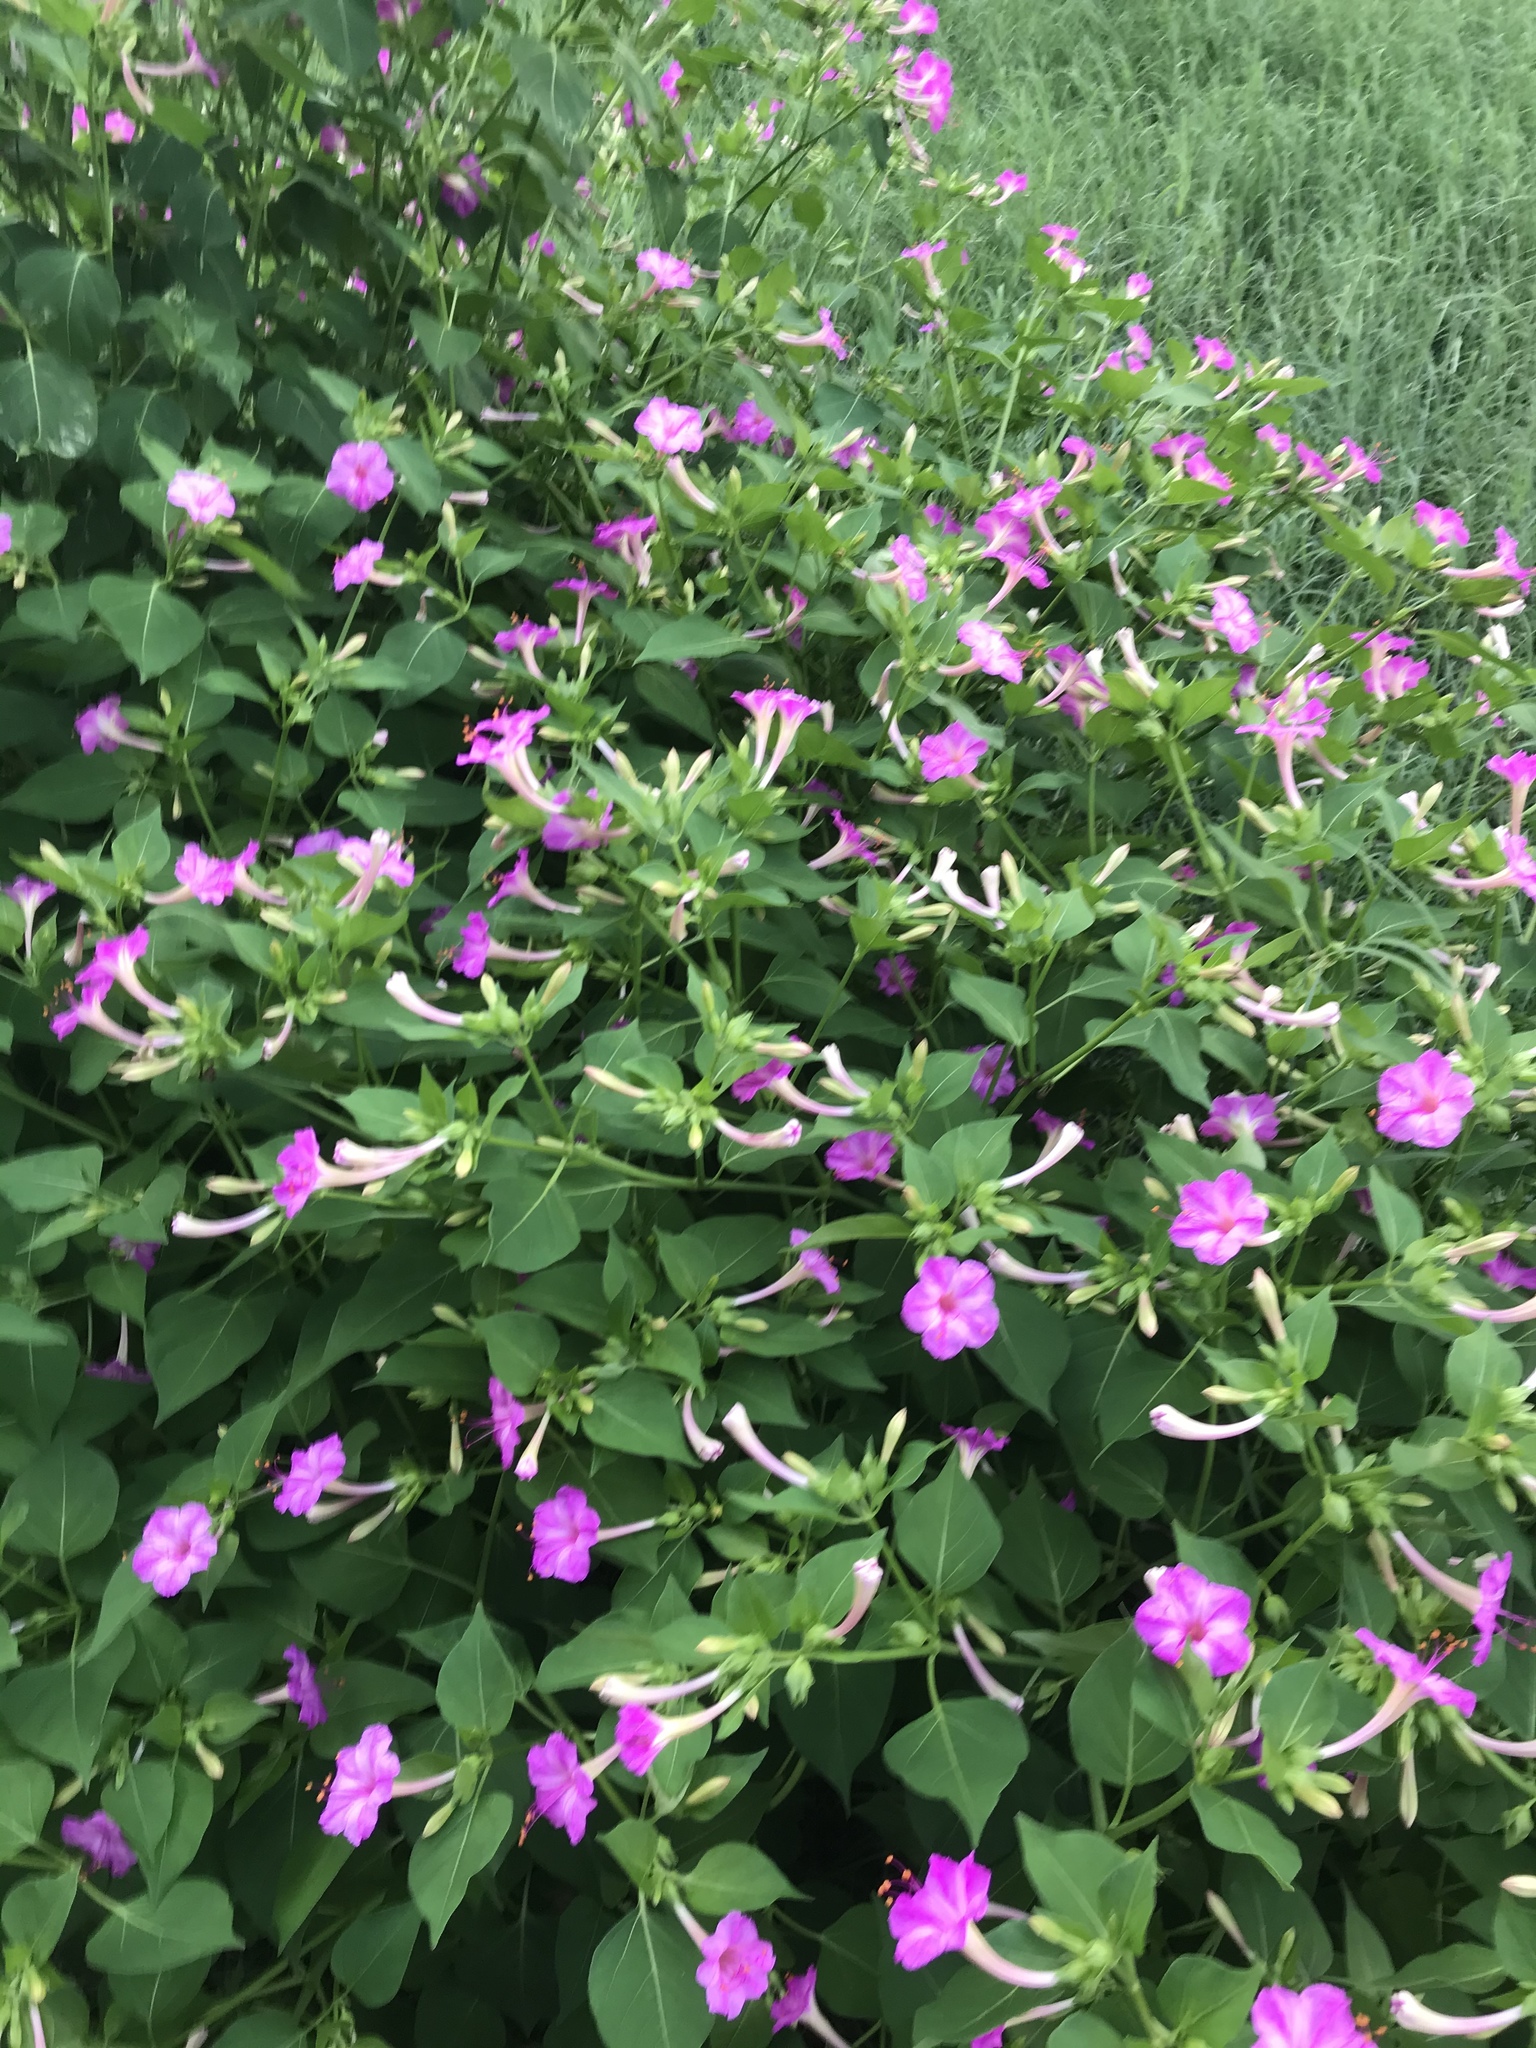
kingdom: Plantae
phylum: Tracheophyta
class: Magnoliopsida
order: Caryophyllales
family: Nyctaginaceae
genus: Mirabilis
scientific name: Mirabilis jalapa
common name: Marvel-of-peru
